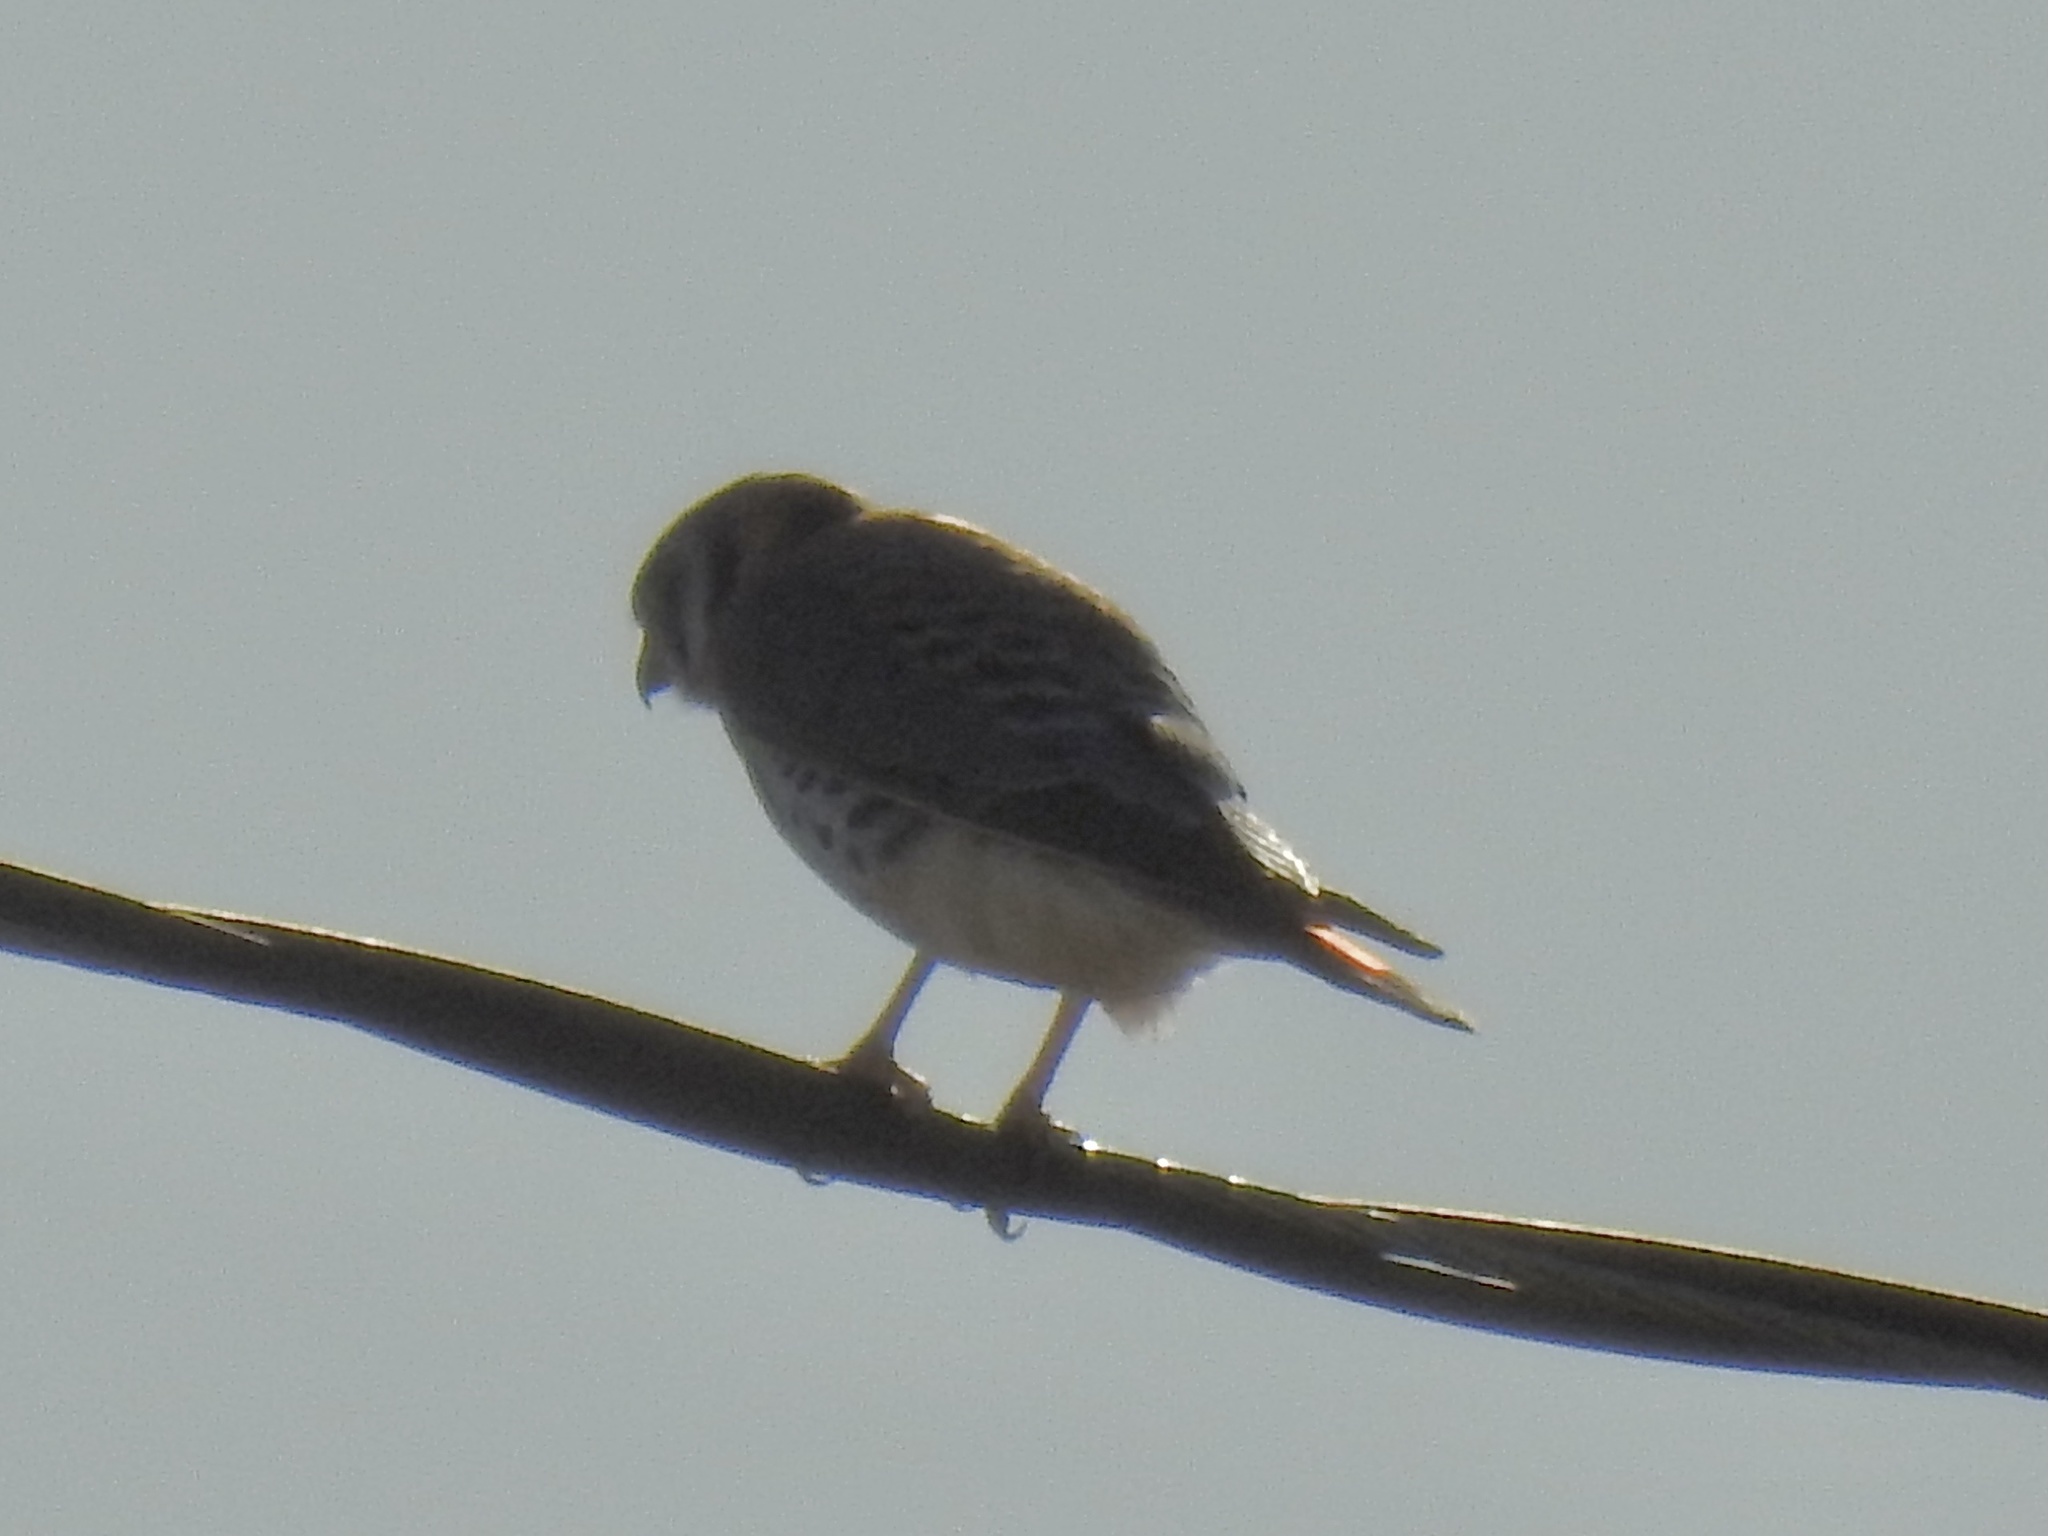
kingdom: Animalia
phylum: Chordata
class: Aves
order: Falconiformes
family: Falconidae
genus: Falco
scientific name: Falco sparverius
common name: American kestrel
